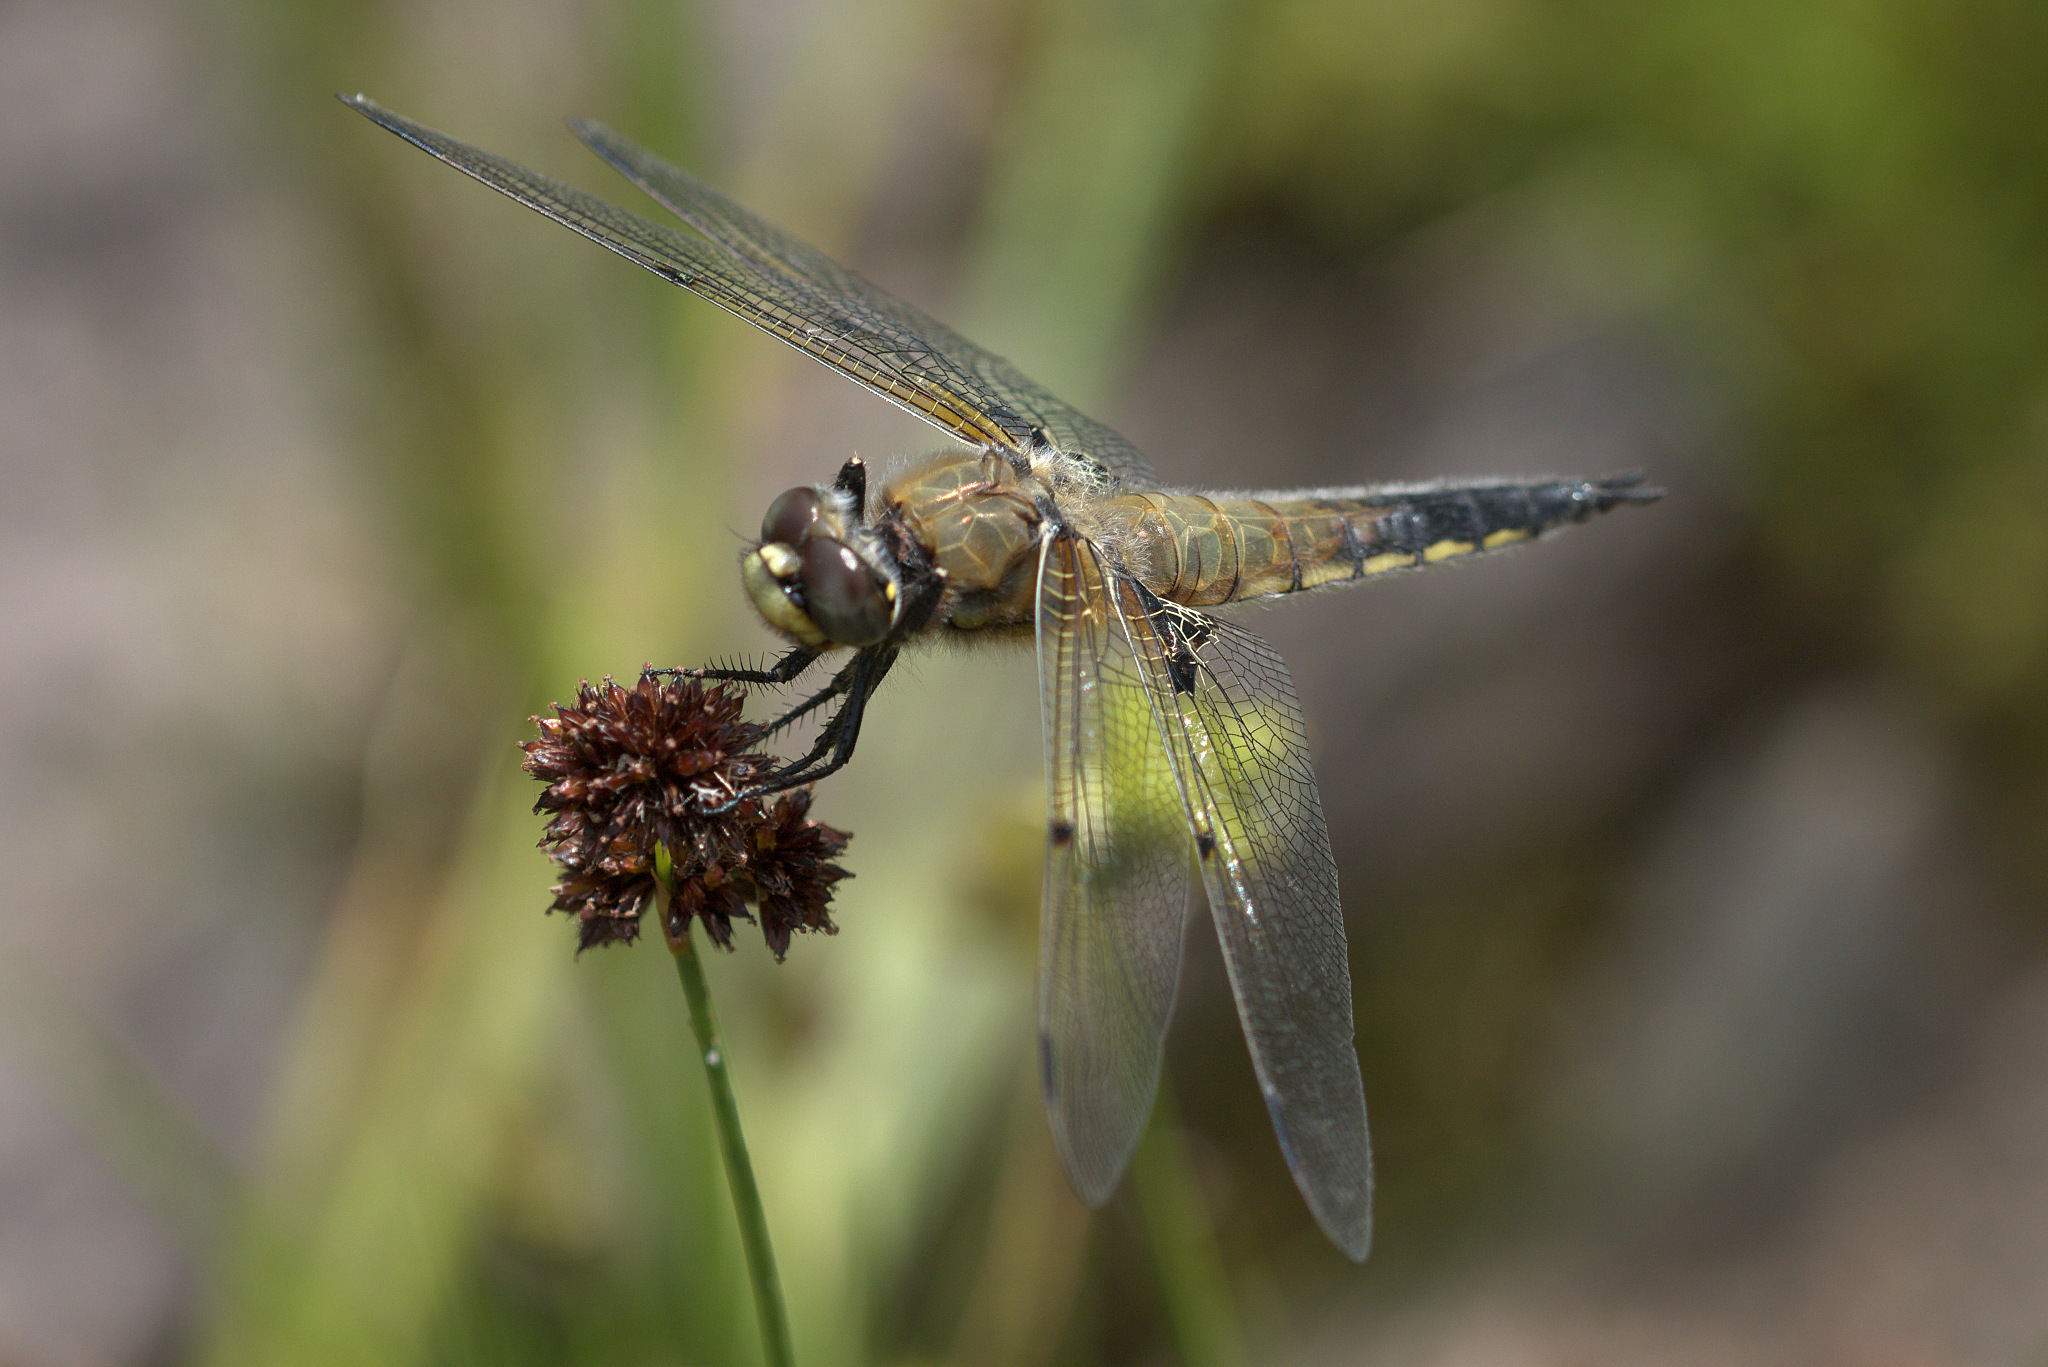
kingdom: Animalia
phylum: Arthropoda
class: Insecta
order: Odonata
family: Libellulidae
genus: Libellula
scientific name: Libellula quadrimaculata
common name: Four-spotted chaser
